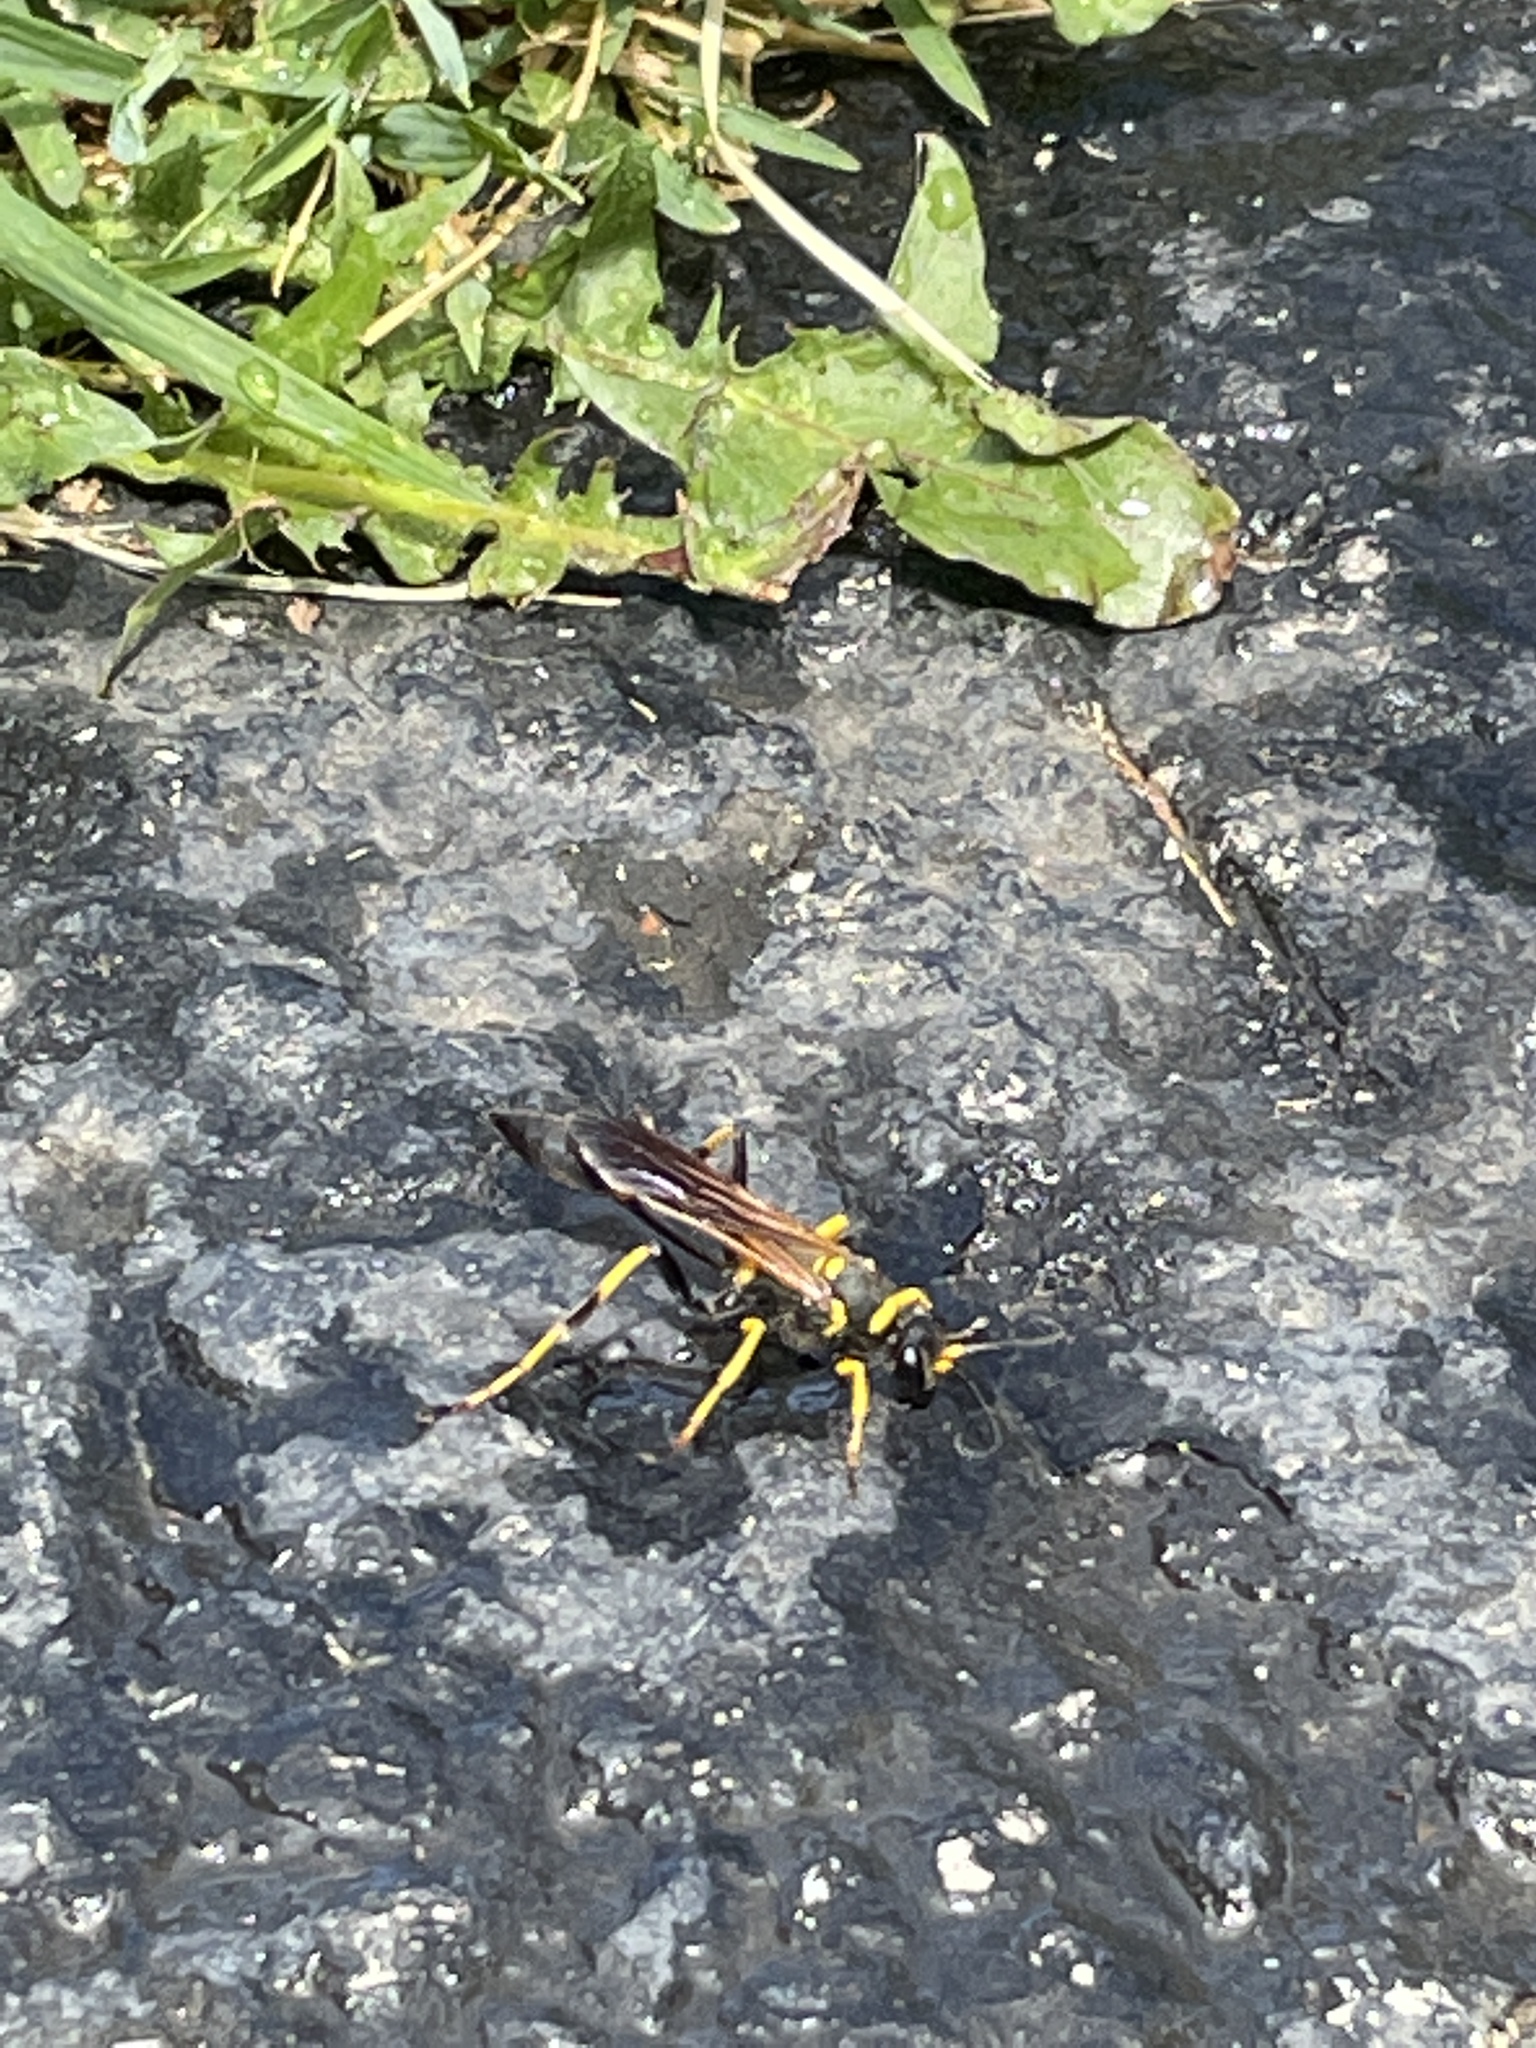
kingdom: Animalia
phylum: Arthropoda
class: Insecta
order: Hymenoptera
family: Sphecidae
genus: Sceliphron
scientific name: Sceliphron caementarium
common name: Mud dauber
